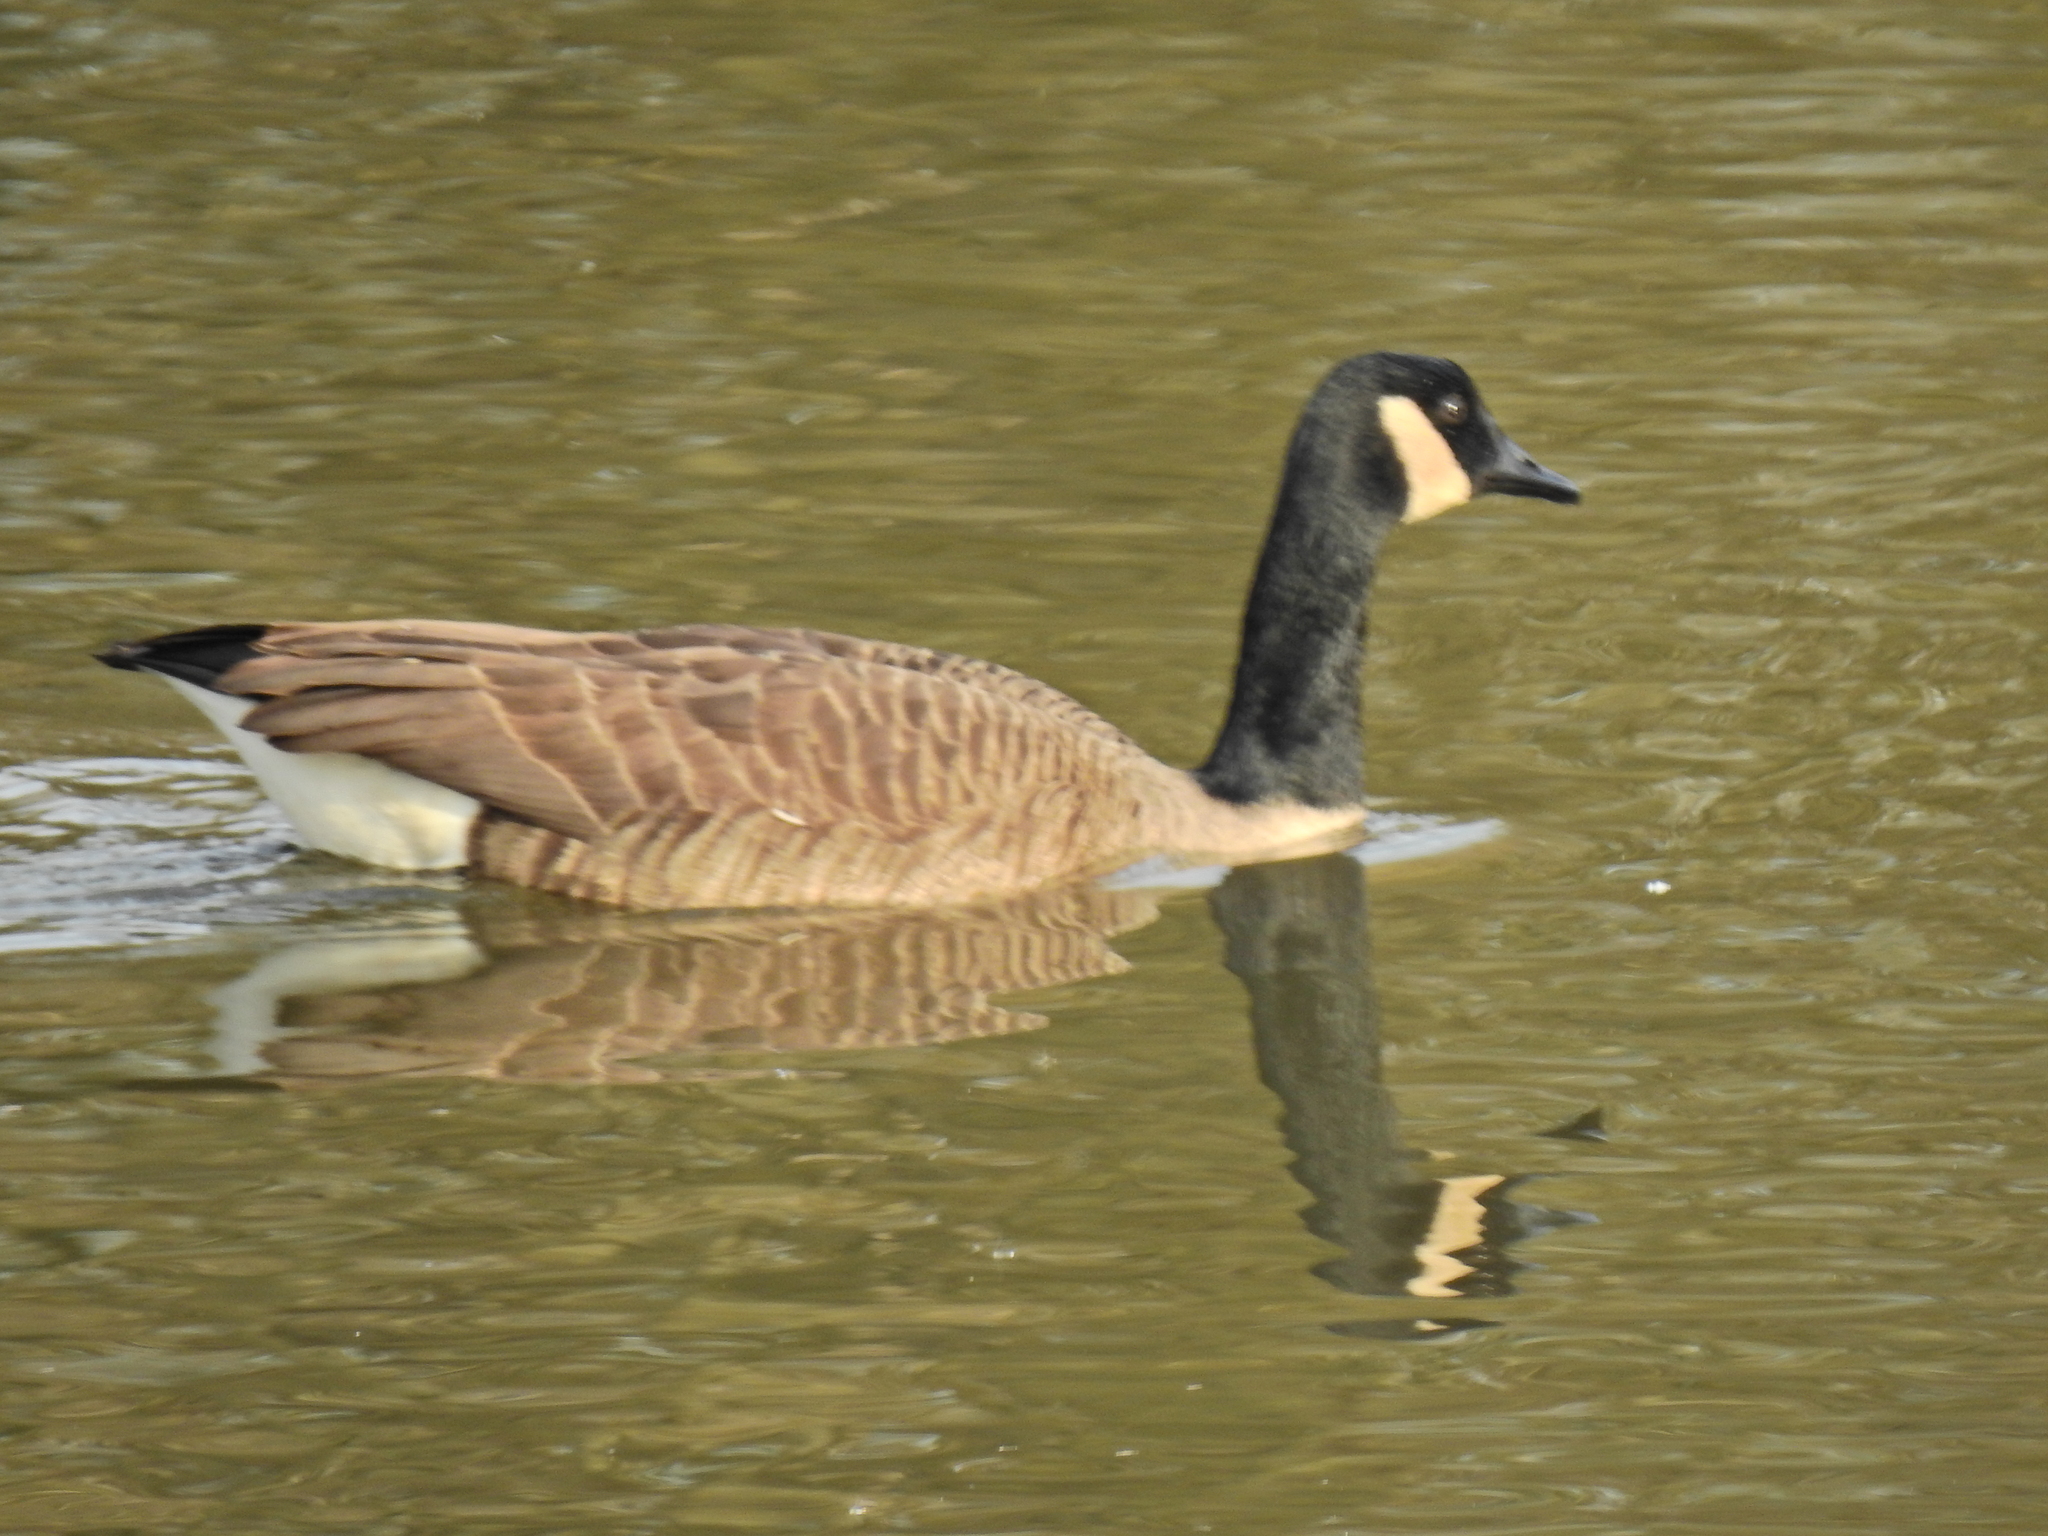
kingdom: Animalia
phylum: Chordata
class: Aves
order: Anseriformes
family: Anatidae
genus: Branta
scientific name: Branta canadensis
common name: Canada goose
